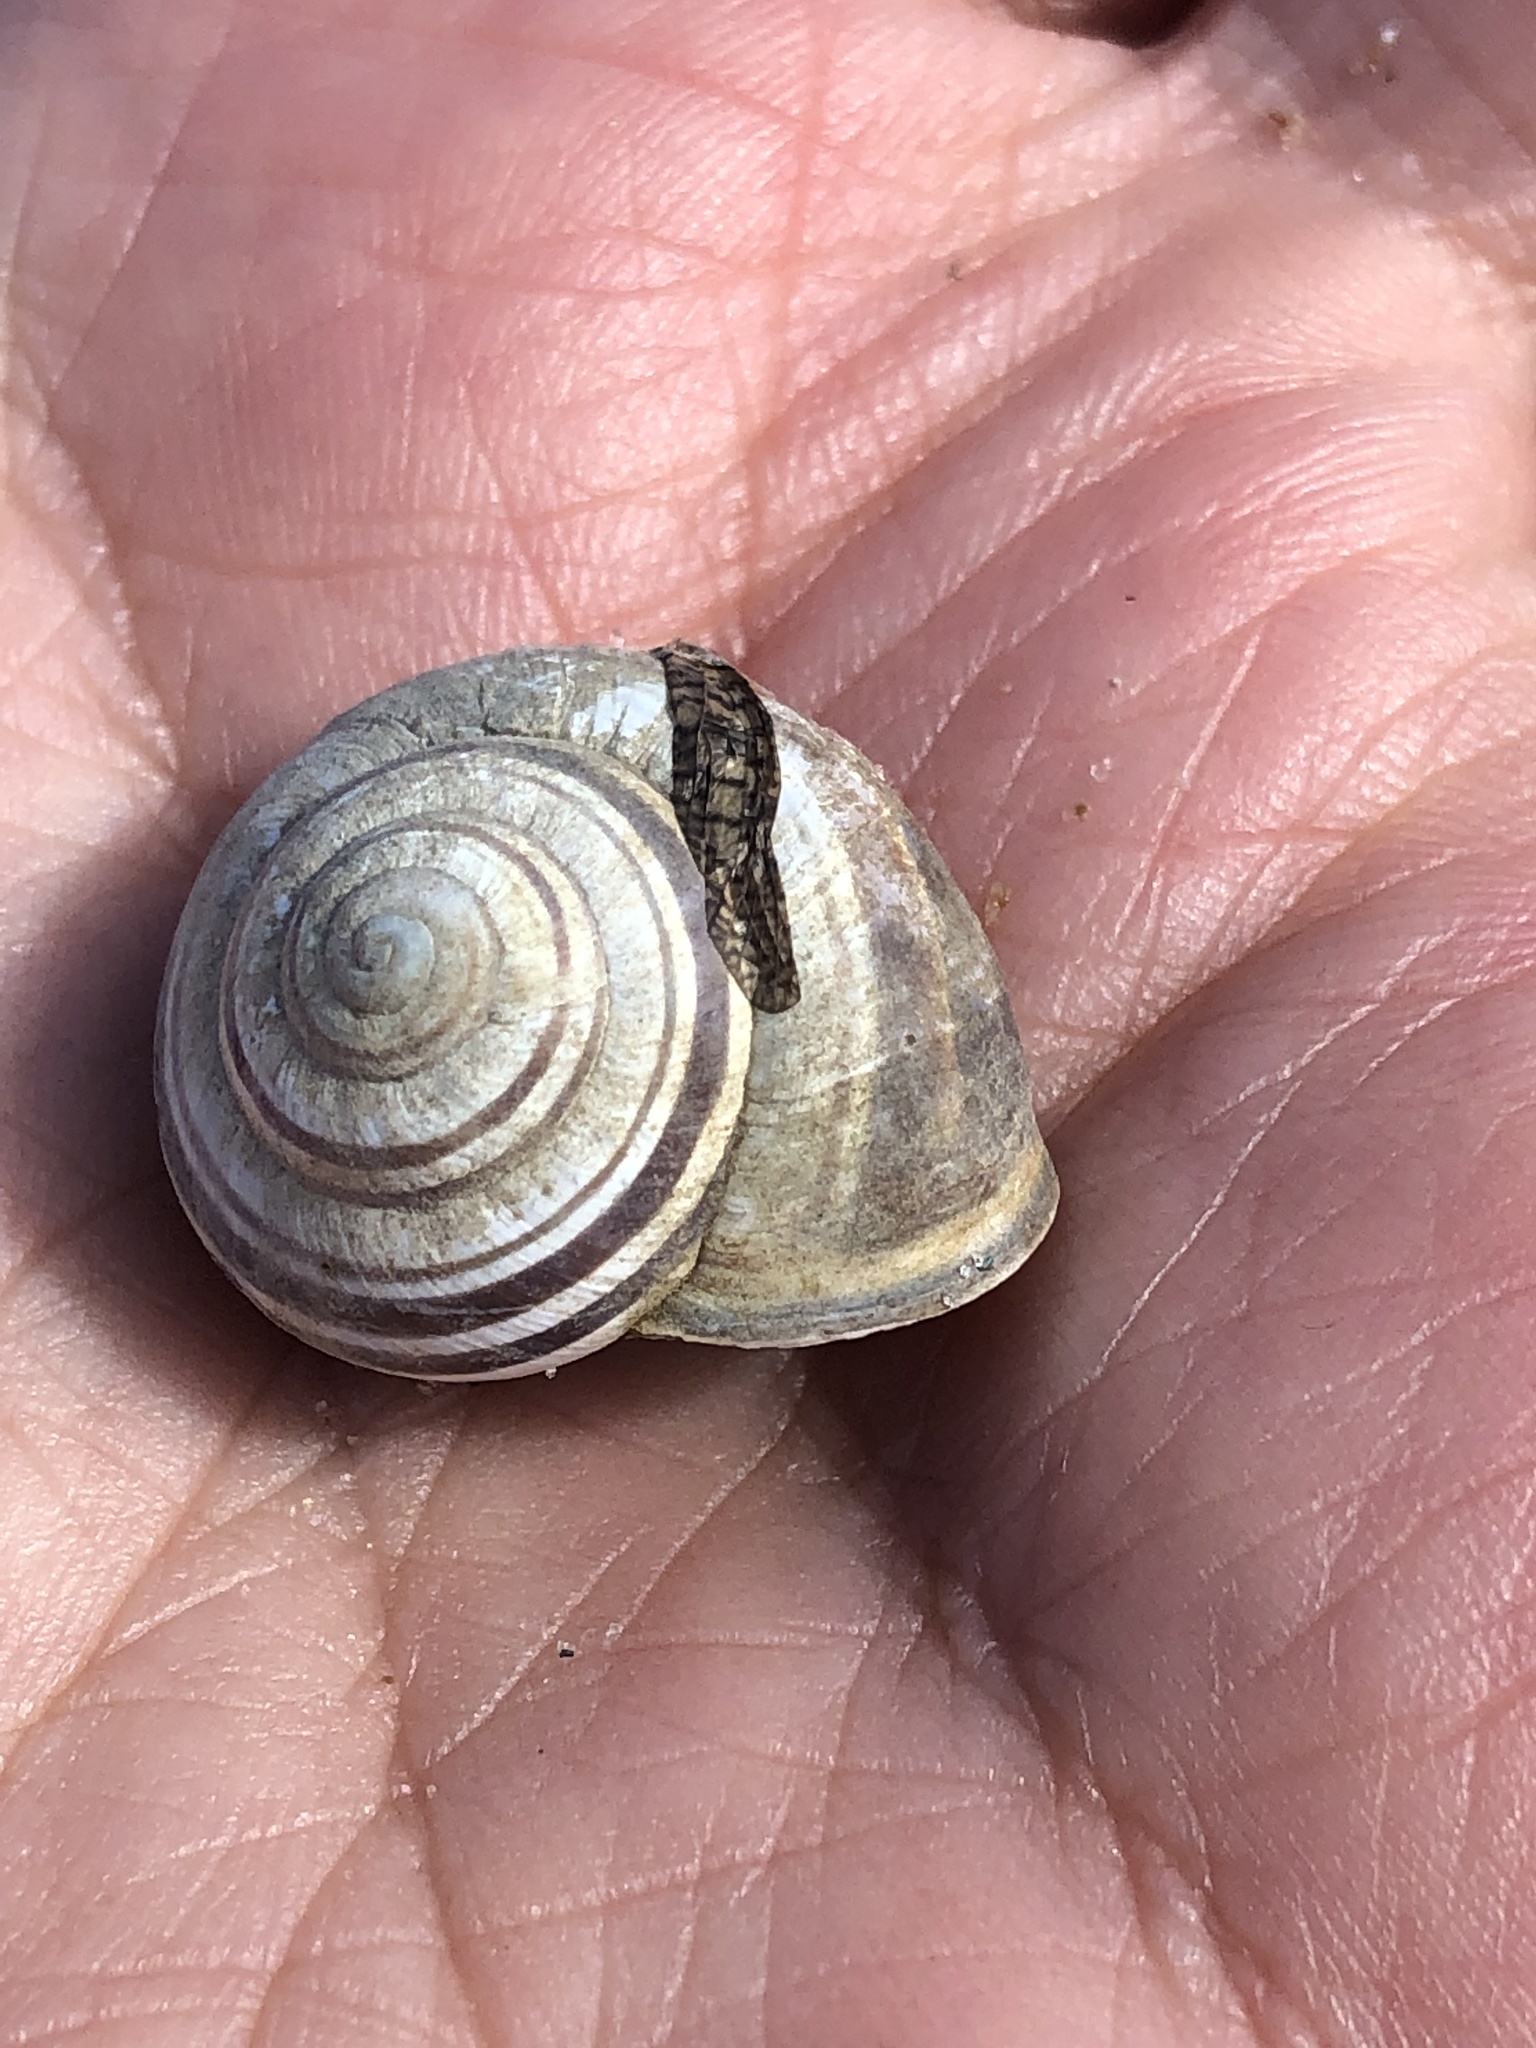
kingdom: Animalia
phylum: Mollusca
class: Gastropoda
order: Stylommatophora
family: Helicidae
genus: Cepaea
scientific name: Cepaea nemoralis
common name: Grovesnail
